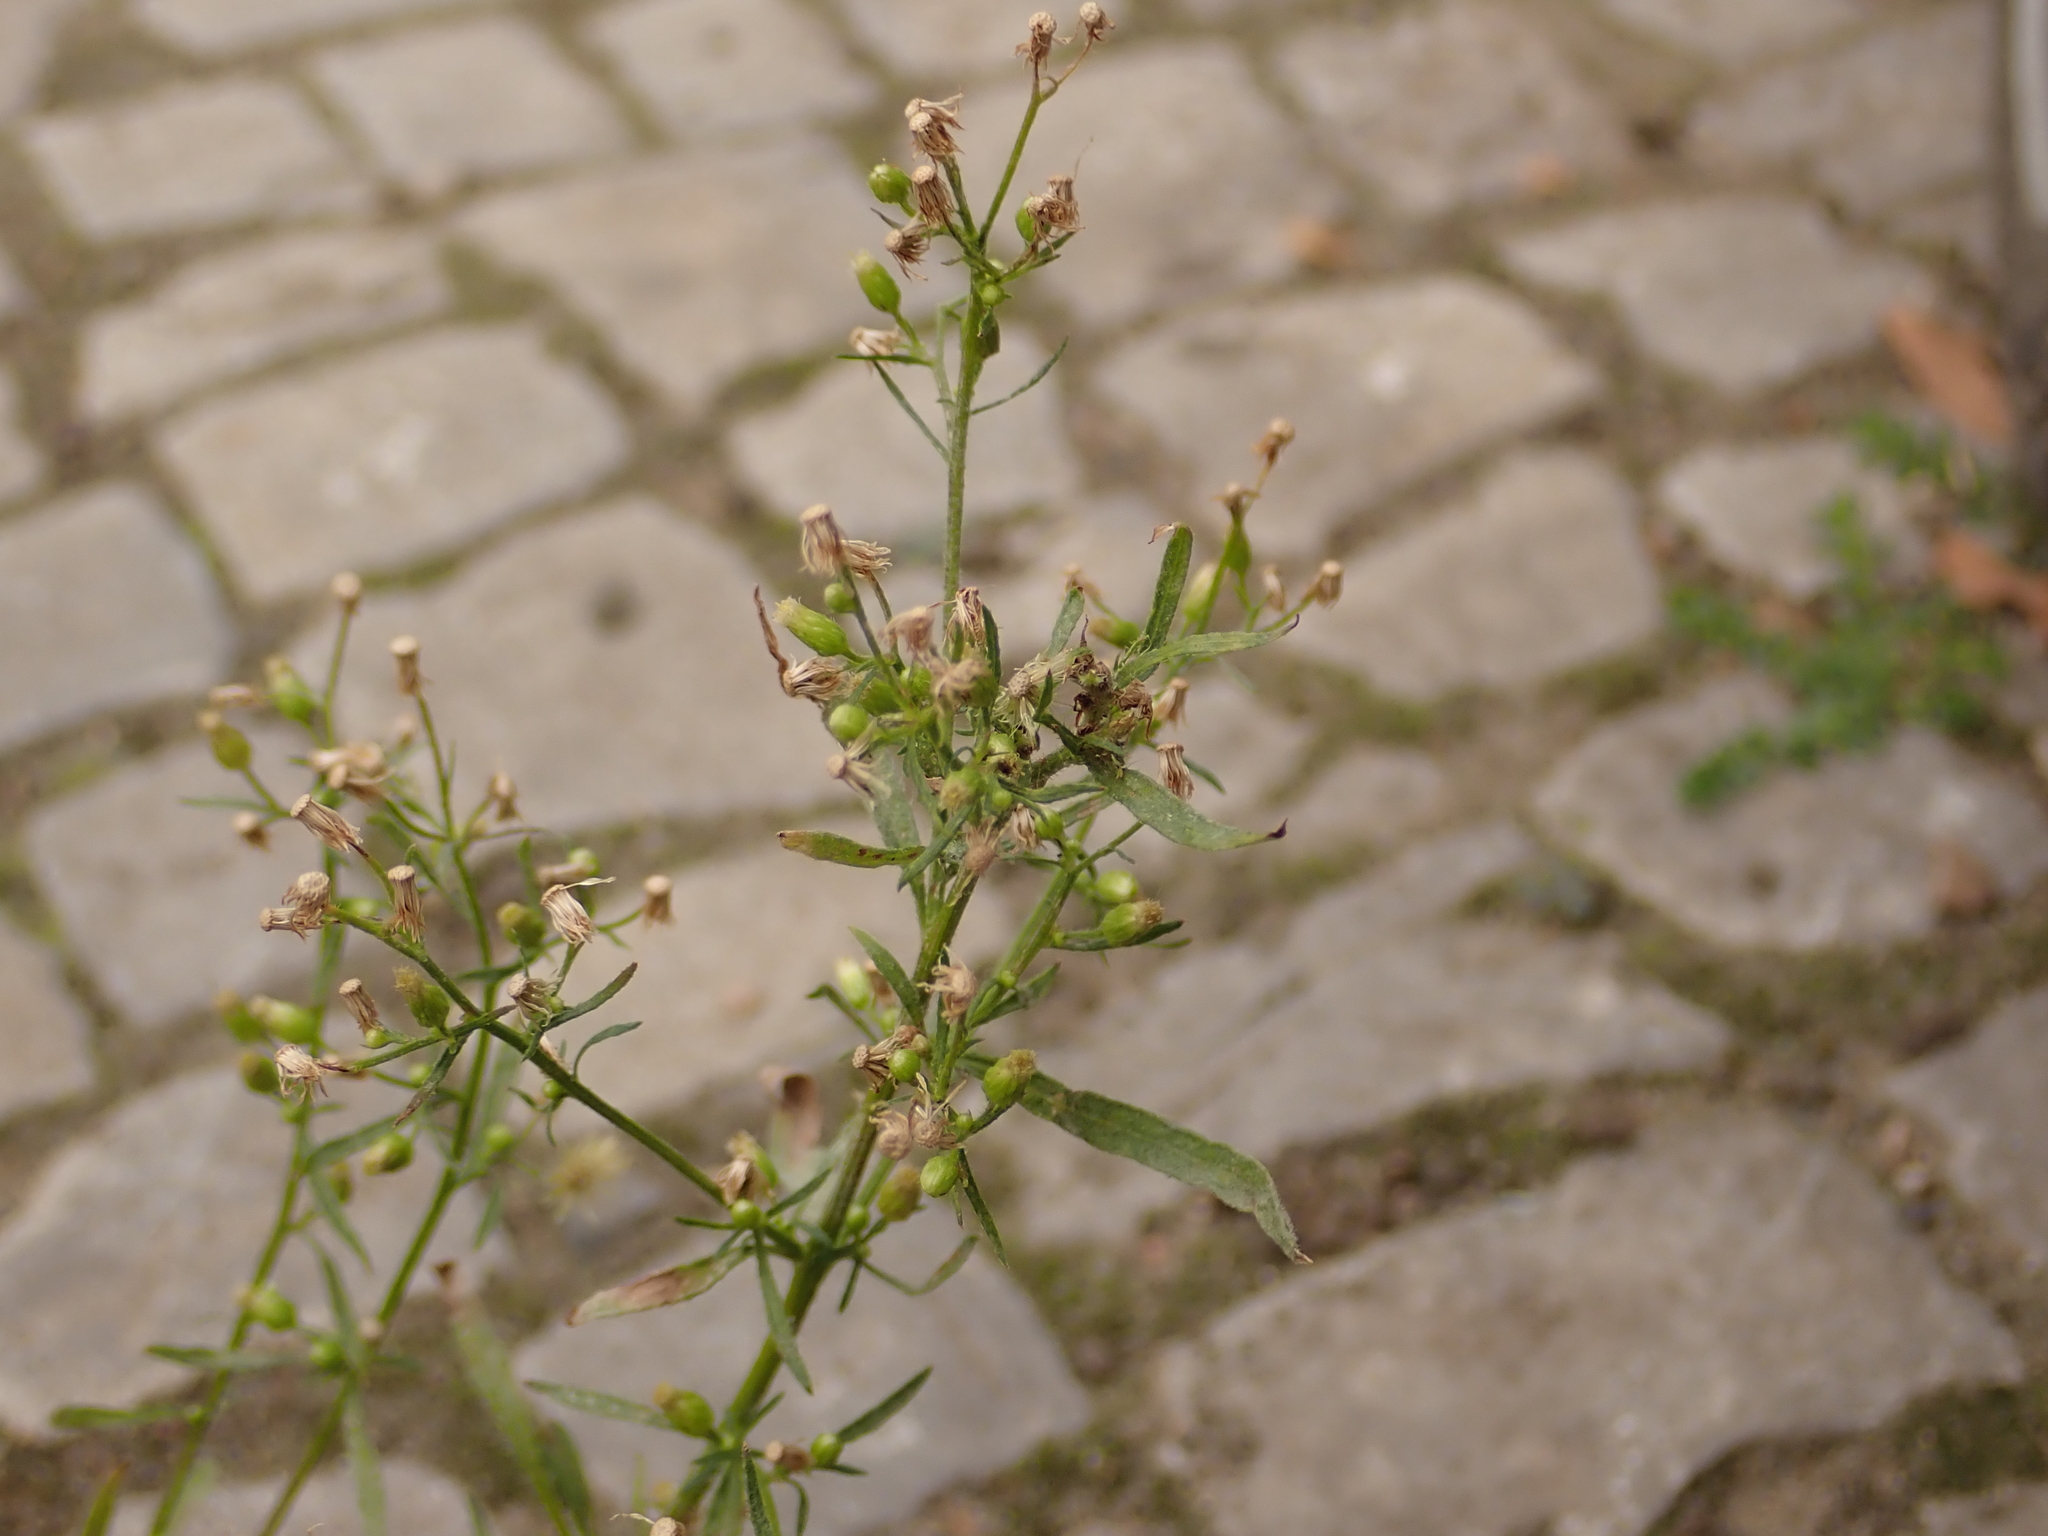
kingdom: Plantae
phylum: Tracheophyta
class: Magnoliopsida
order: Asterales
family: Asteraceae
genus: Erigeron
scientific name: Erigeron canadensis
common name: Canadian fleabane
